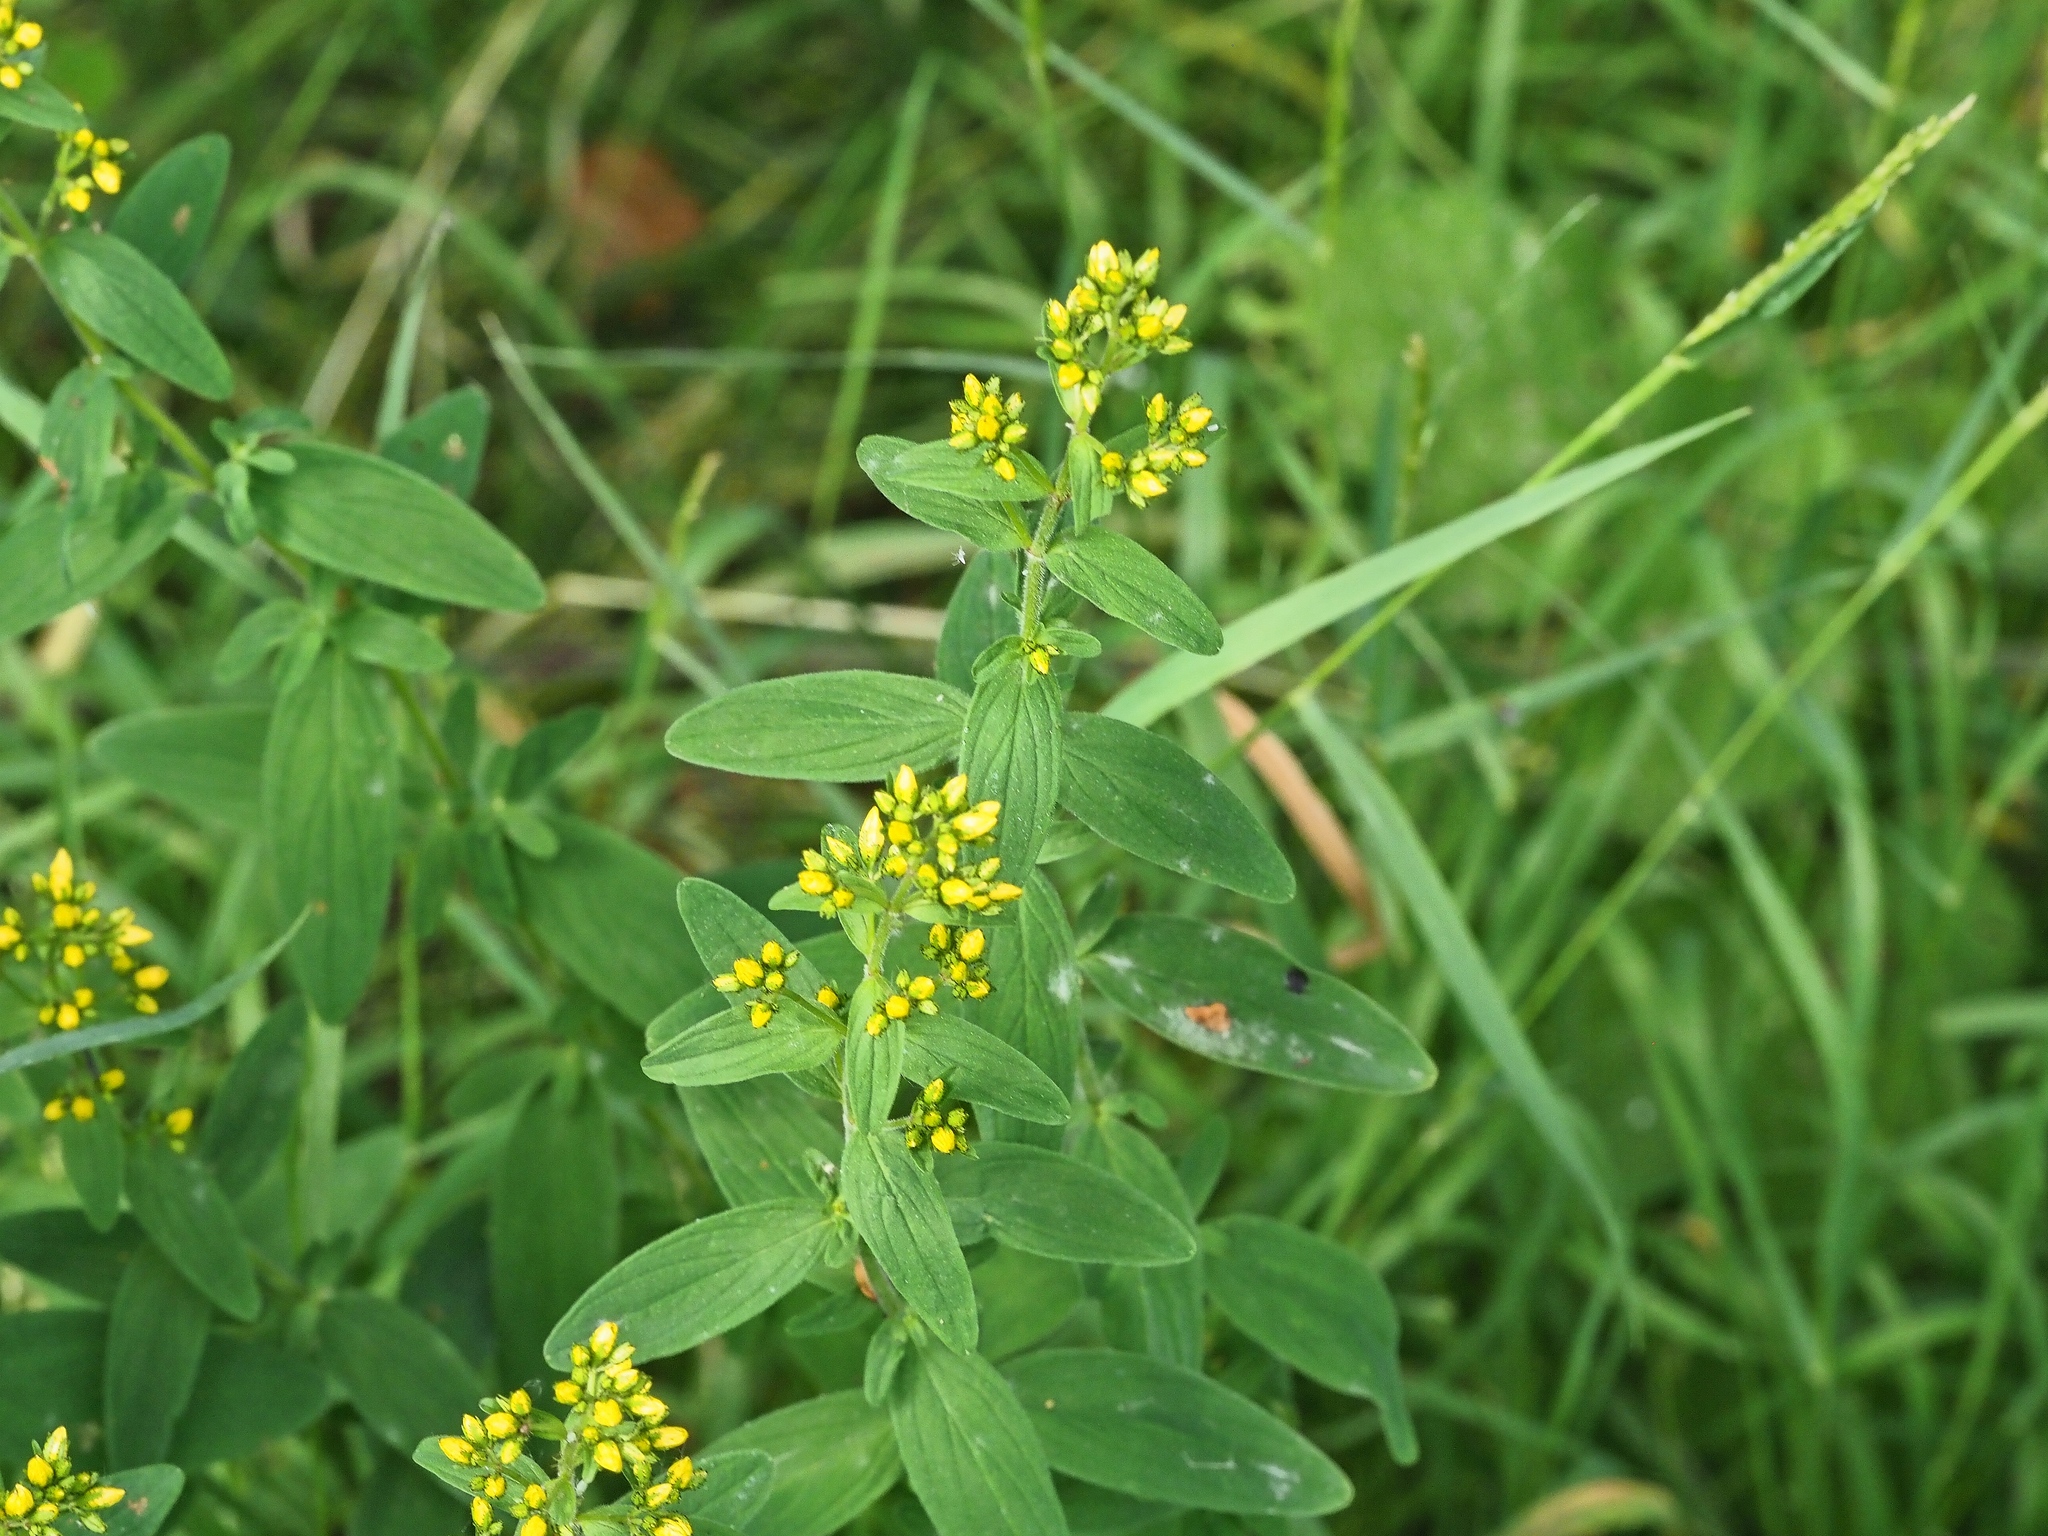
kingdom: Plantae
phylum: Tracheophyta
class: Magnoliopsida
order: Malpighiales
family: Hypericaceae
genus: Hypericum
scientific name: Hypericum hirsutum
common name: Hairy st. john's-wort
